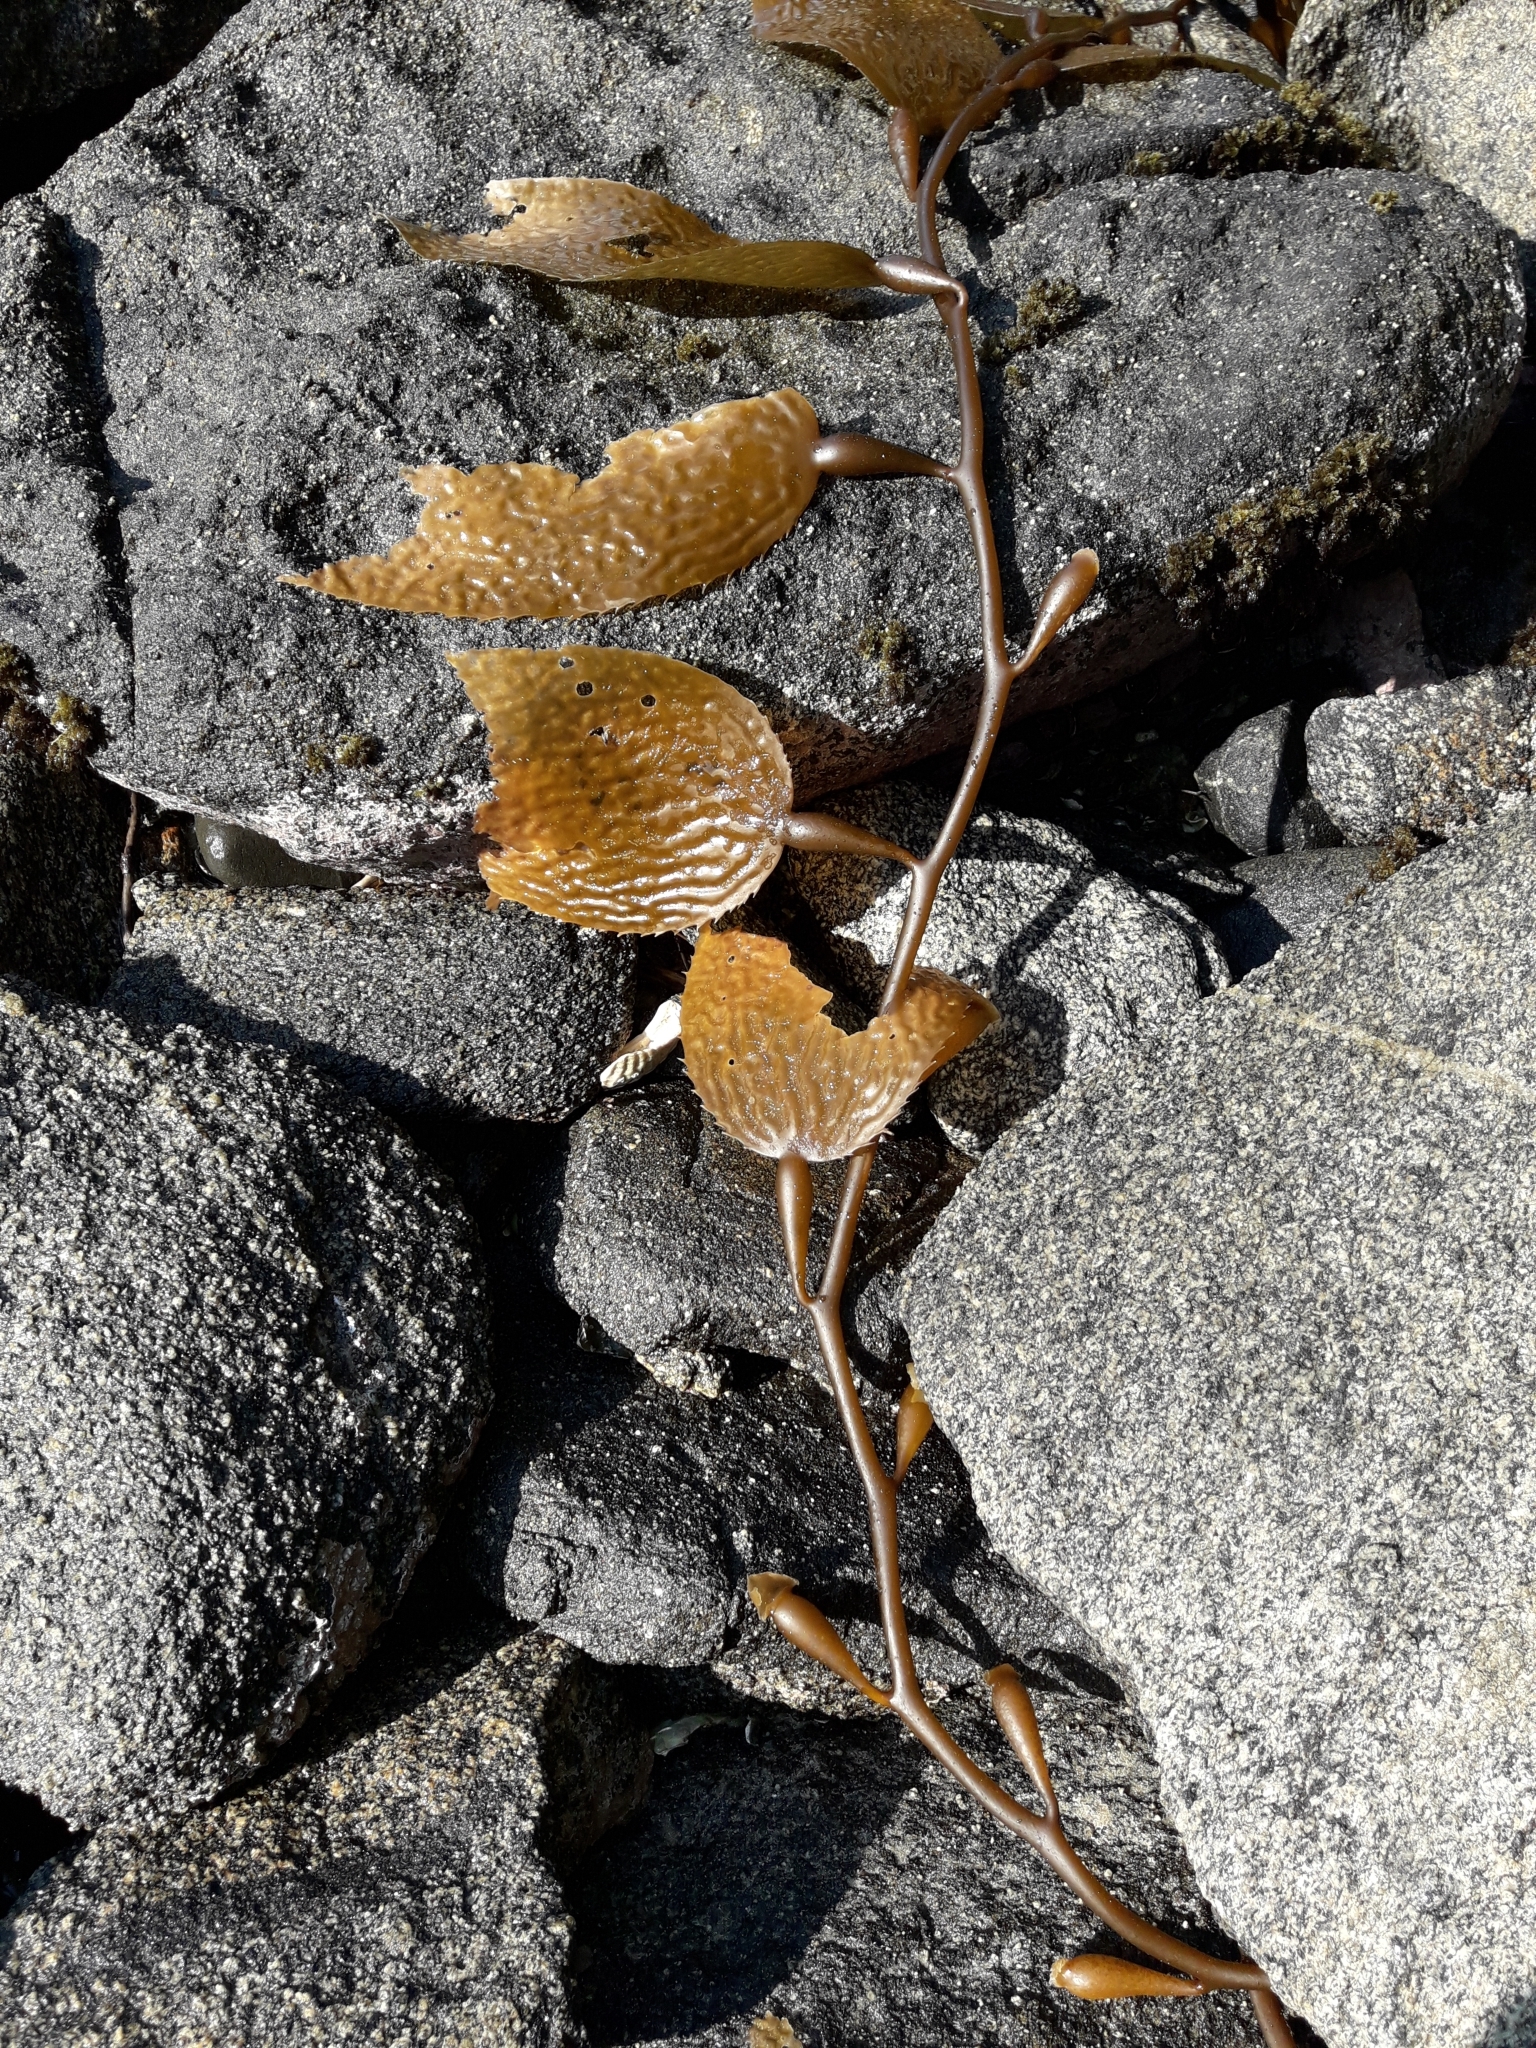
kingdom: Chromista
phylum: Ochrophyta
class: Phaeophyceae
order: Laminariales
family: Laminariaceae
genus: Macrocystis
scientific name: Macrocystis pyrifera
